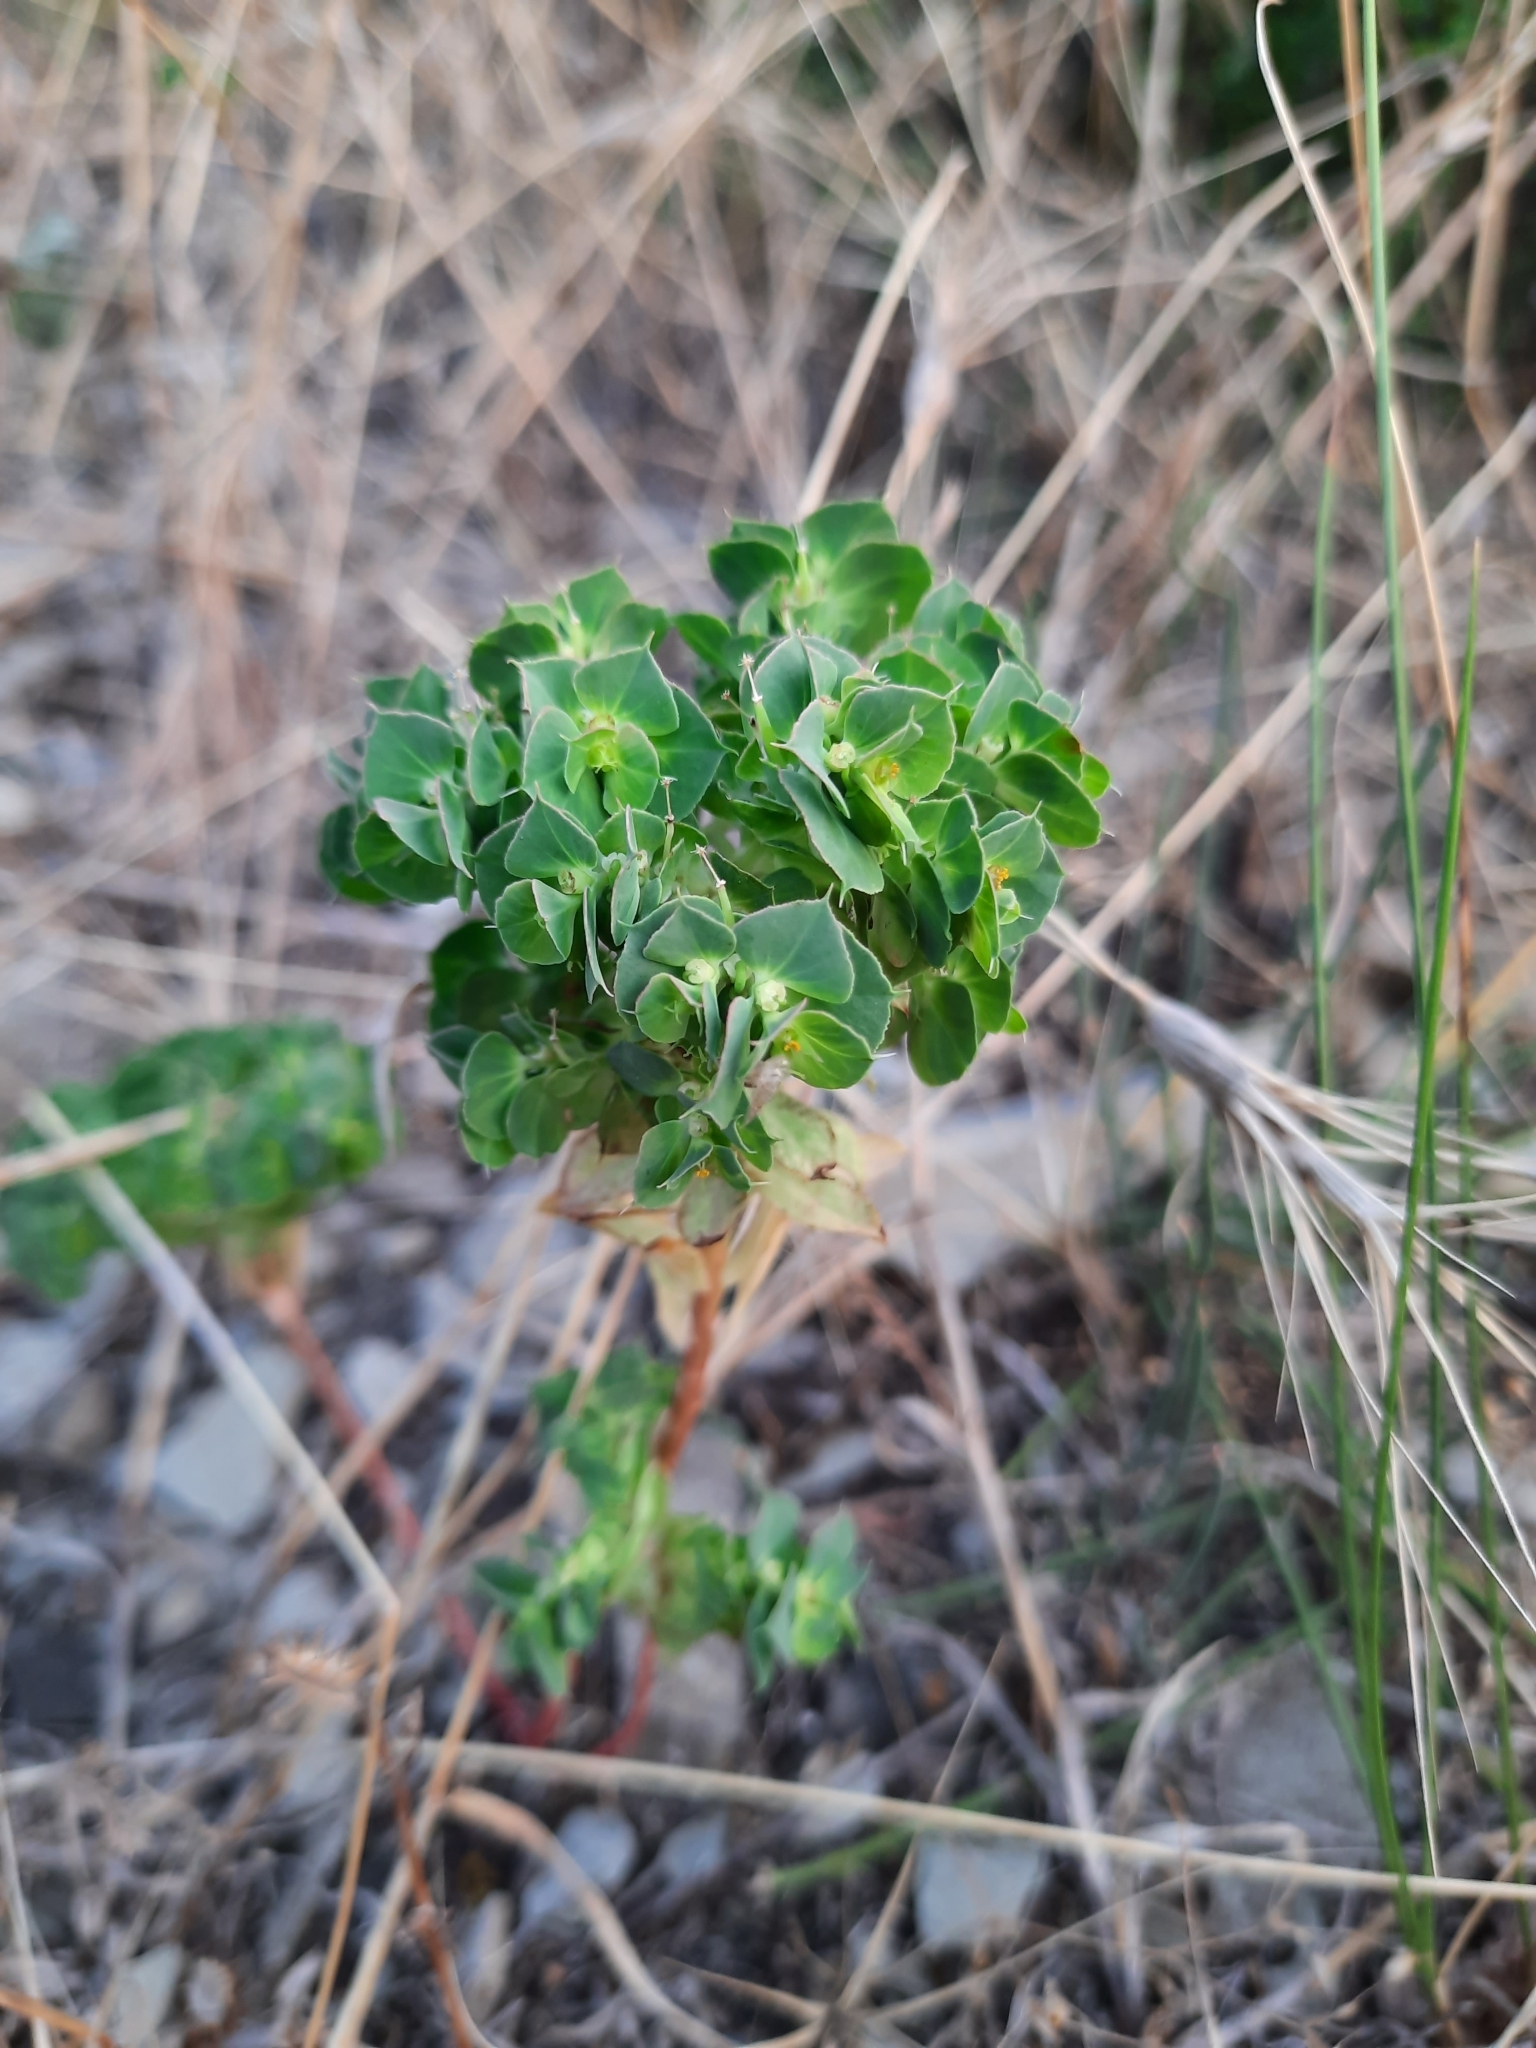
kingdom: Plantae
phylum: Tracheophyta
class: Magnoliopsida
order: Malpighiales
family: Euphorbiaceae
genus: Euphorbia
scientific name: Euphorbia falcata
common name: Sickle spurge
